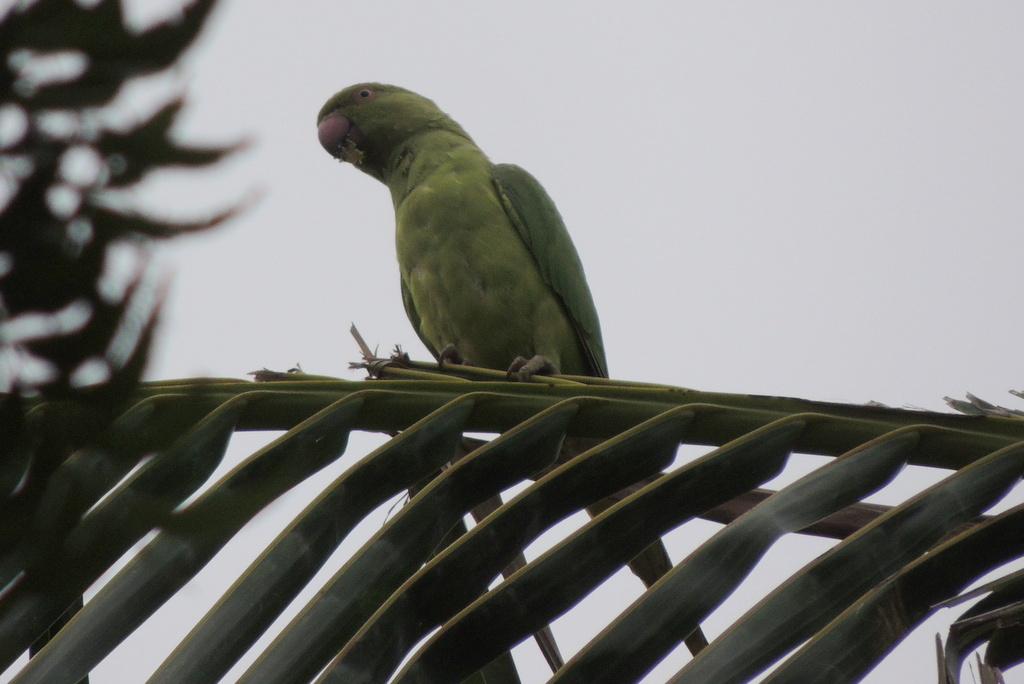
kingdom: Animalia
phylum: Chordata
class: Aves
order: Psittaciformes
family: Psittacidae
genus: Psittacula
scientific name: Psittacula krameri
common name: Rose-ringed parakeet
